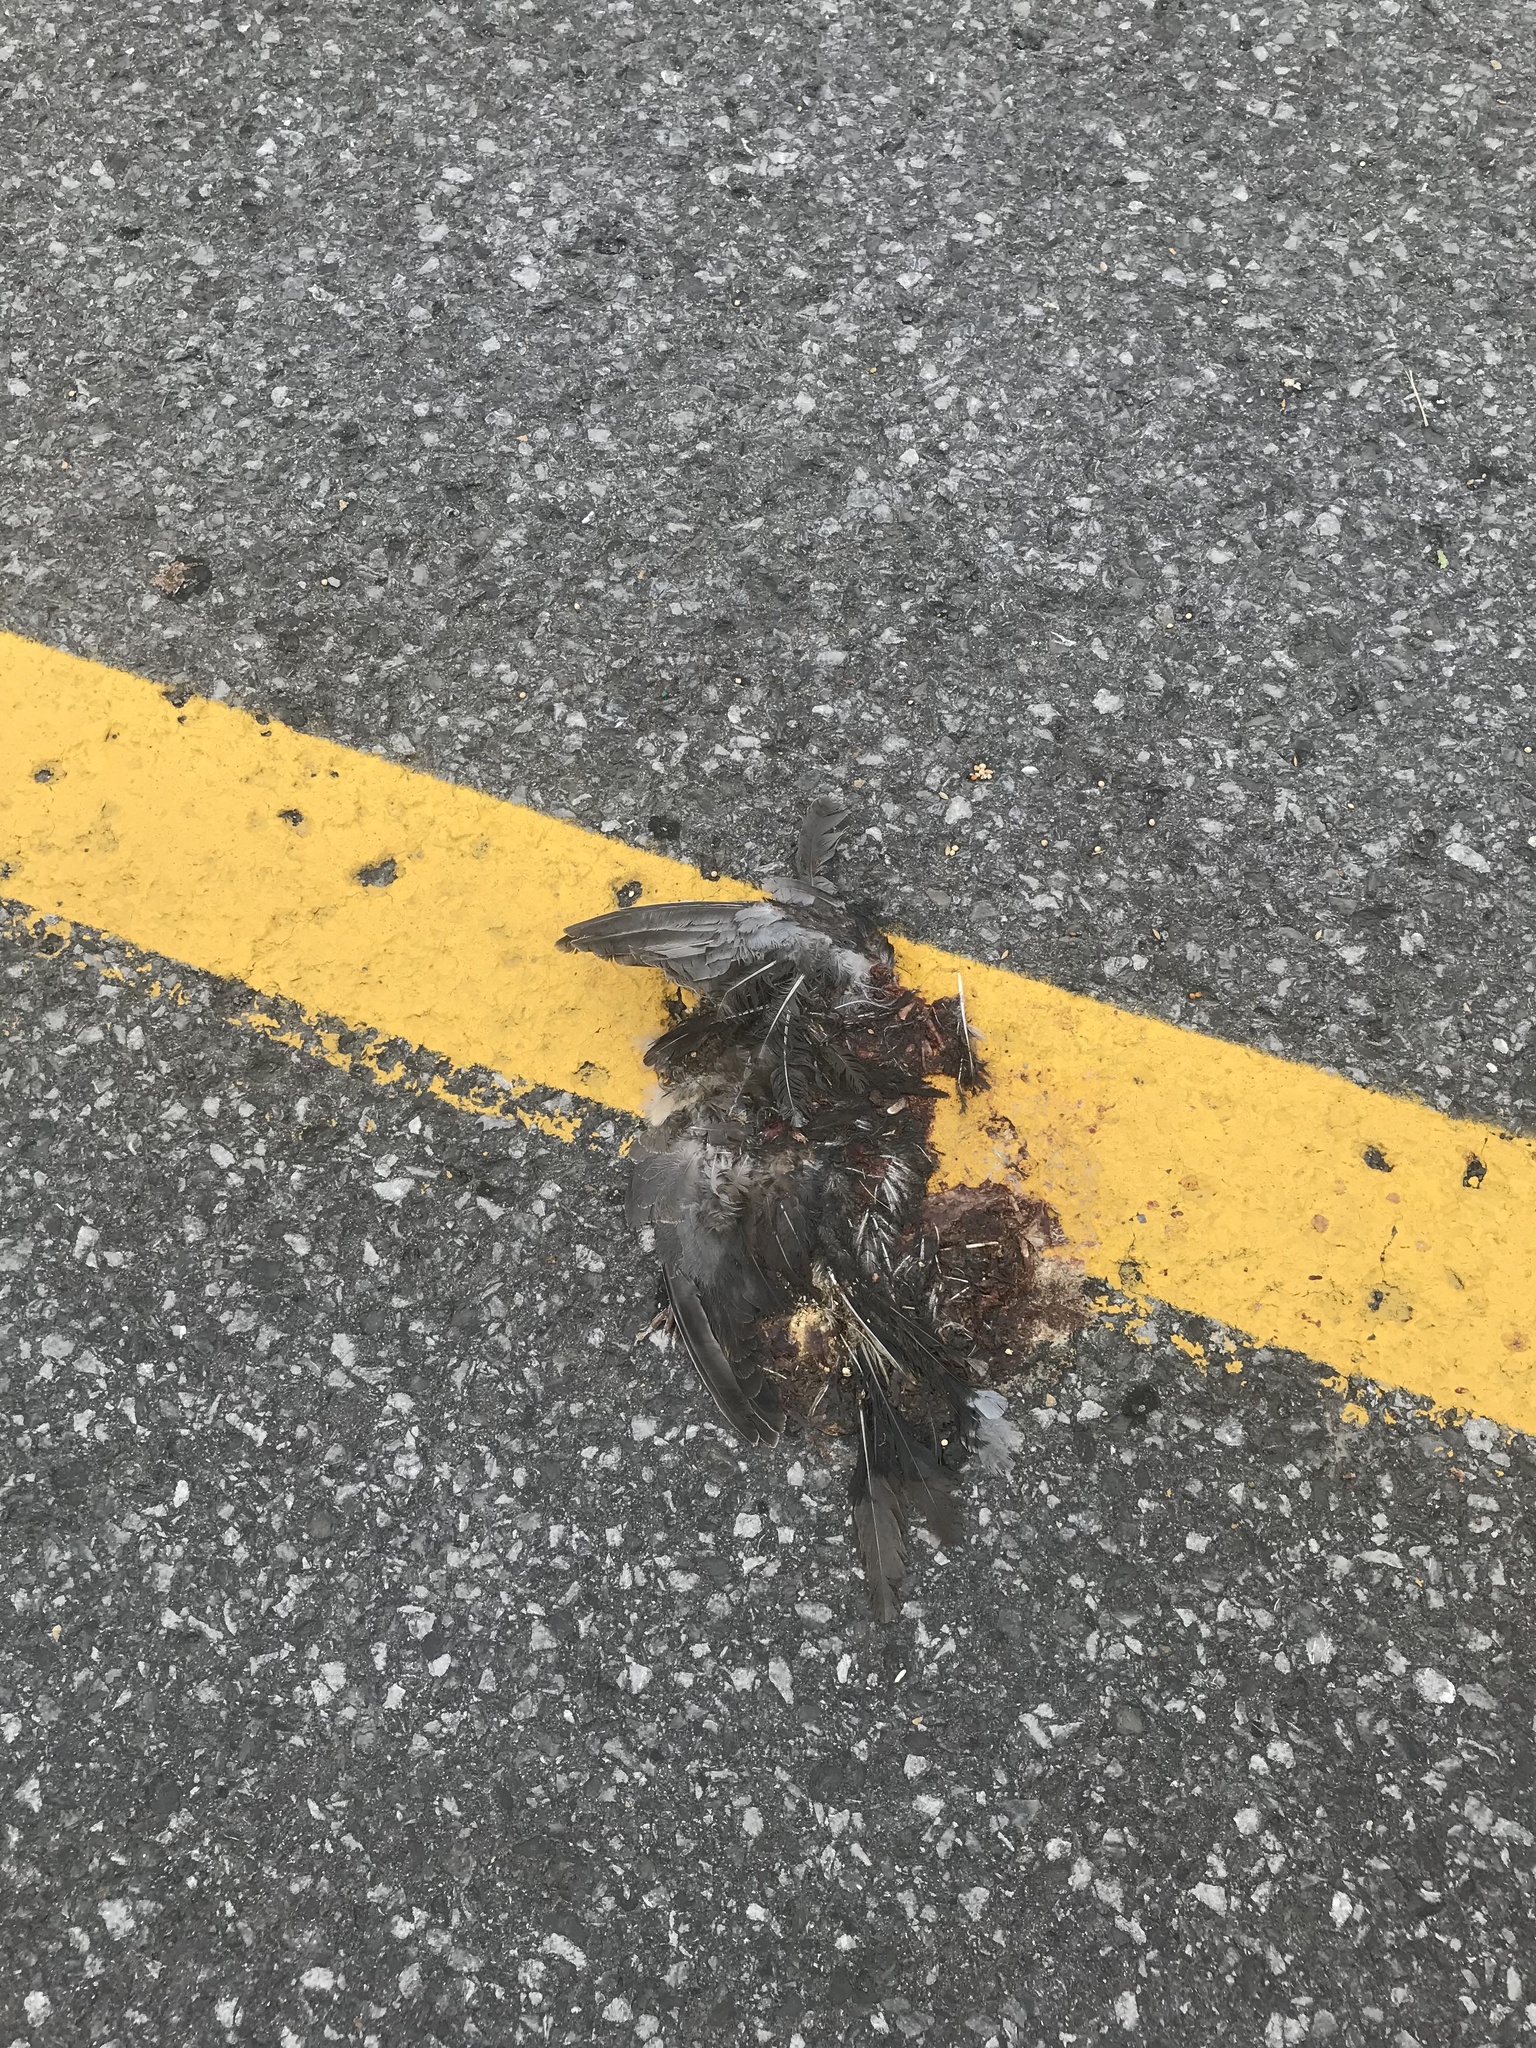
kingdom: Animalia
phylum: Chordata
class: Aves
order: Columbiformes
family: Columbidae
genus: Zenaida
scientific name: Zenaida macroura
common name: Mourning dove
